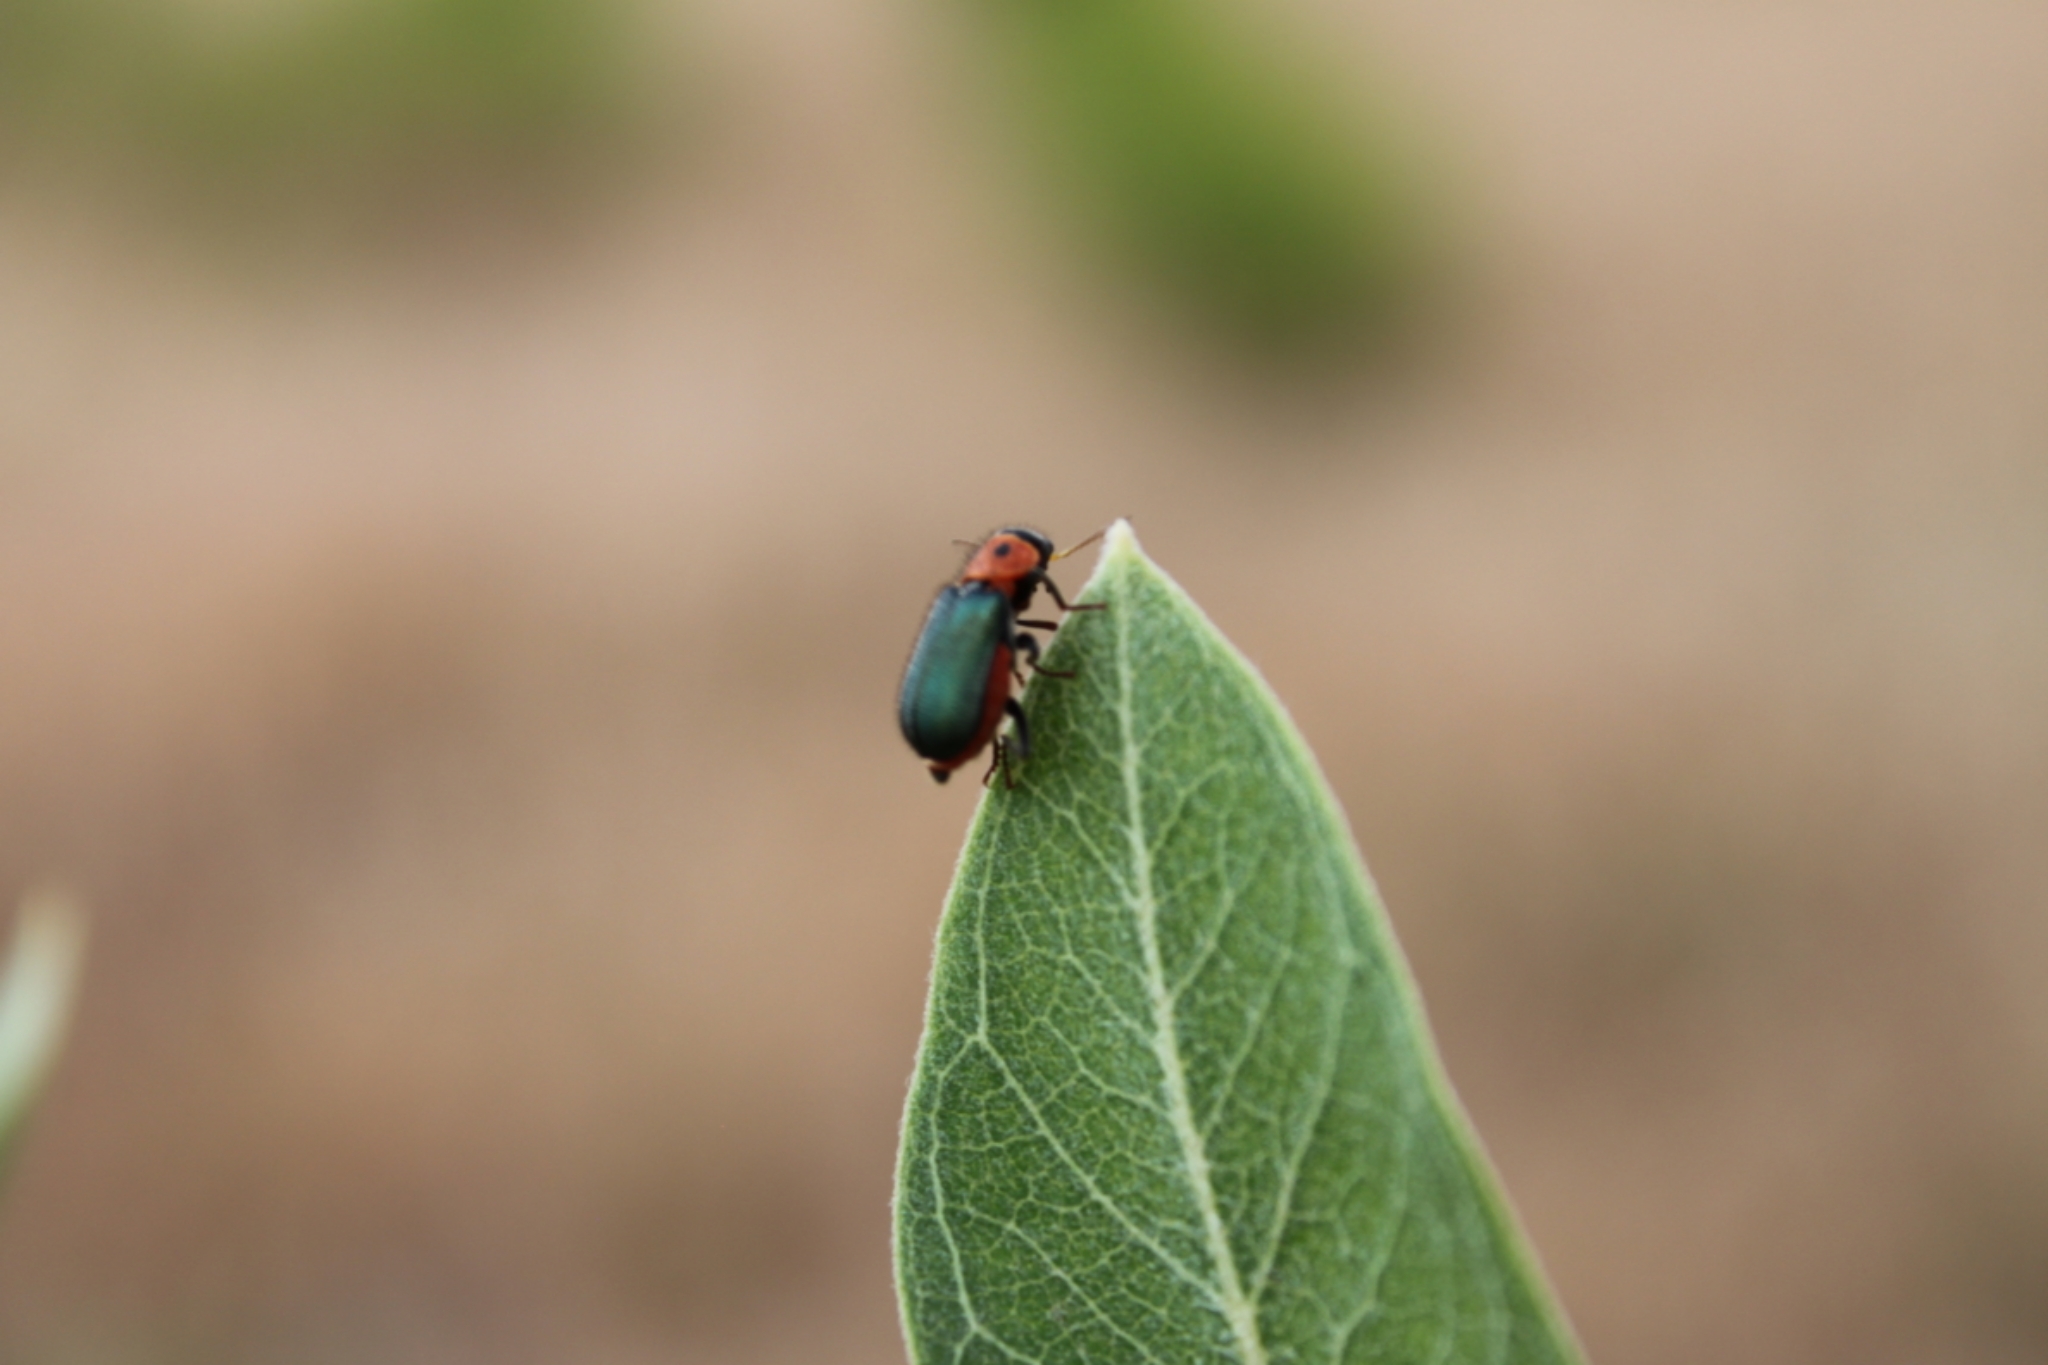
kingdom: Animalia
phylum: Arthropoda
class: Insecta
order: Coleoptera
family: Melyridae
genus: Collops
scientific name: Collops bipunctatus
